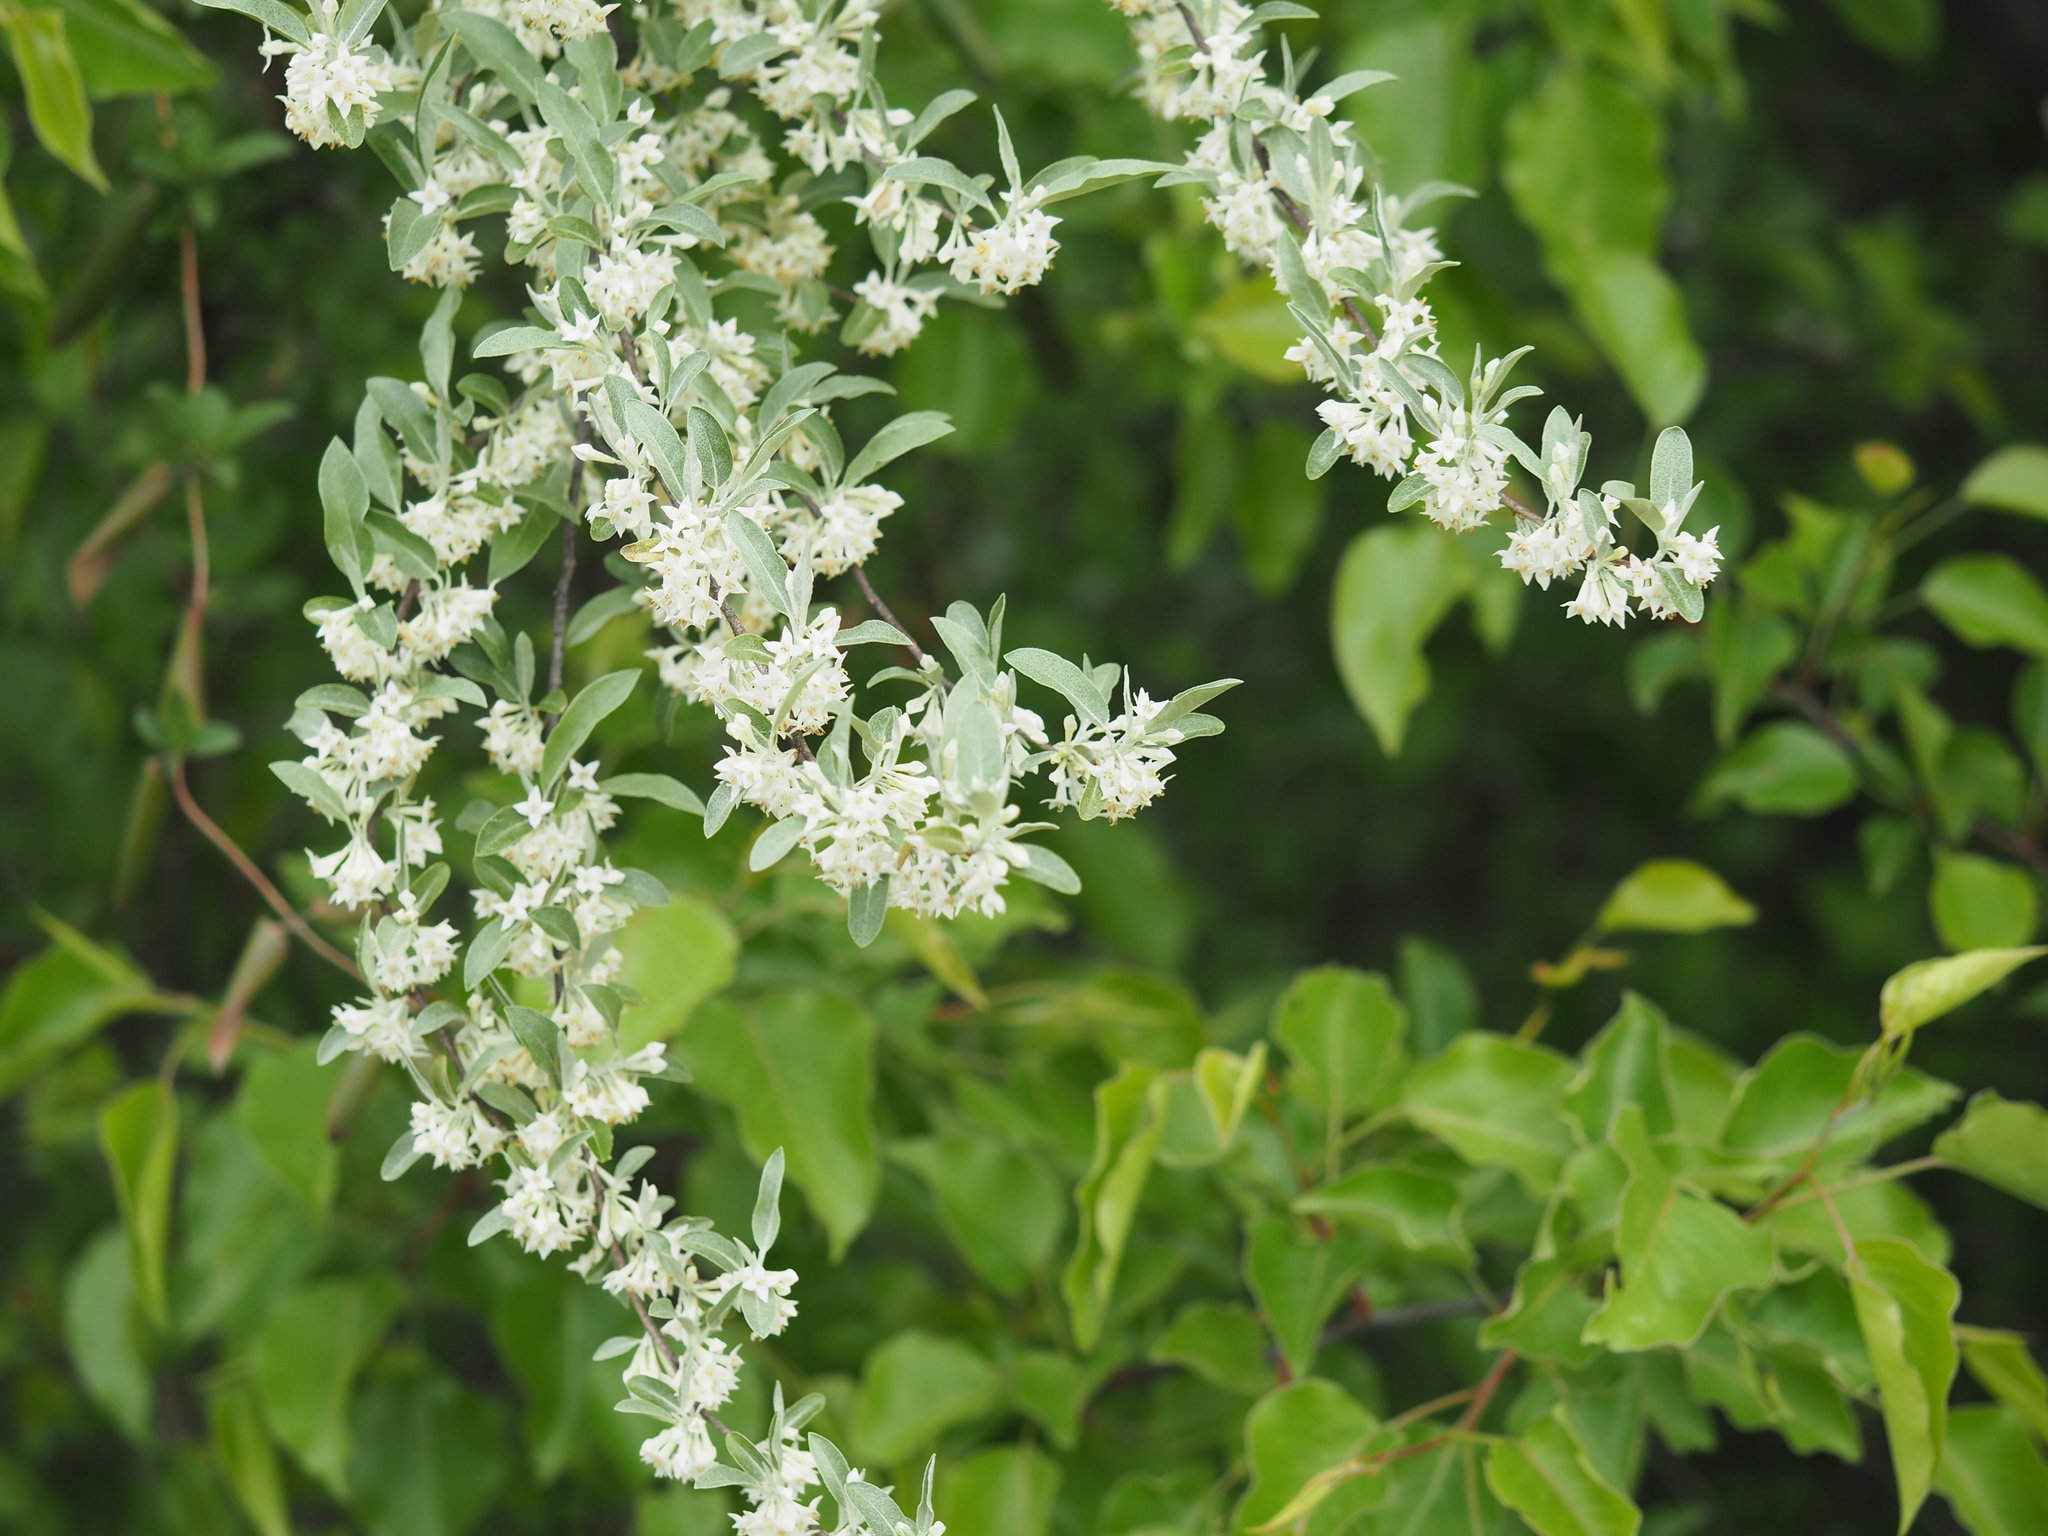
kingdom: Plantae
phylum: Tracheophyta
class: Magnoliopsida
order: Rosales
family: Elaeagnaceae
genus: Elaeagnus
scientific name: Elaeagnus umbellata
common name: Autumn olive
